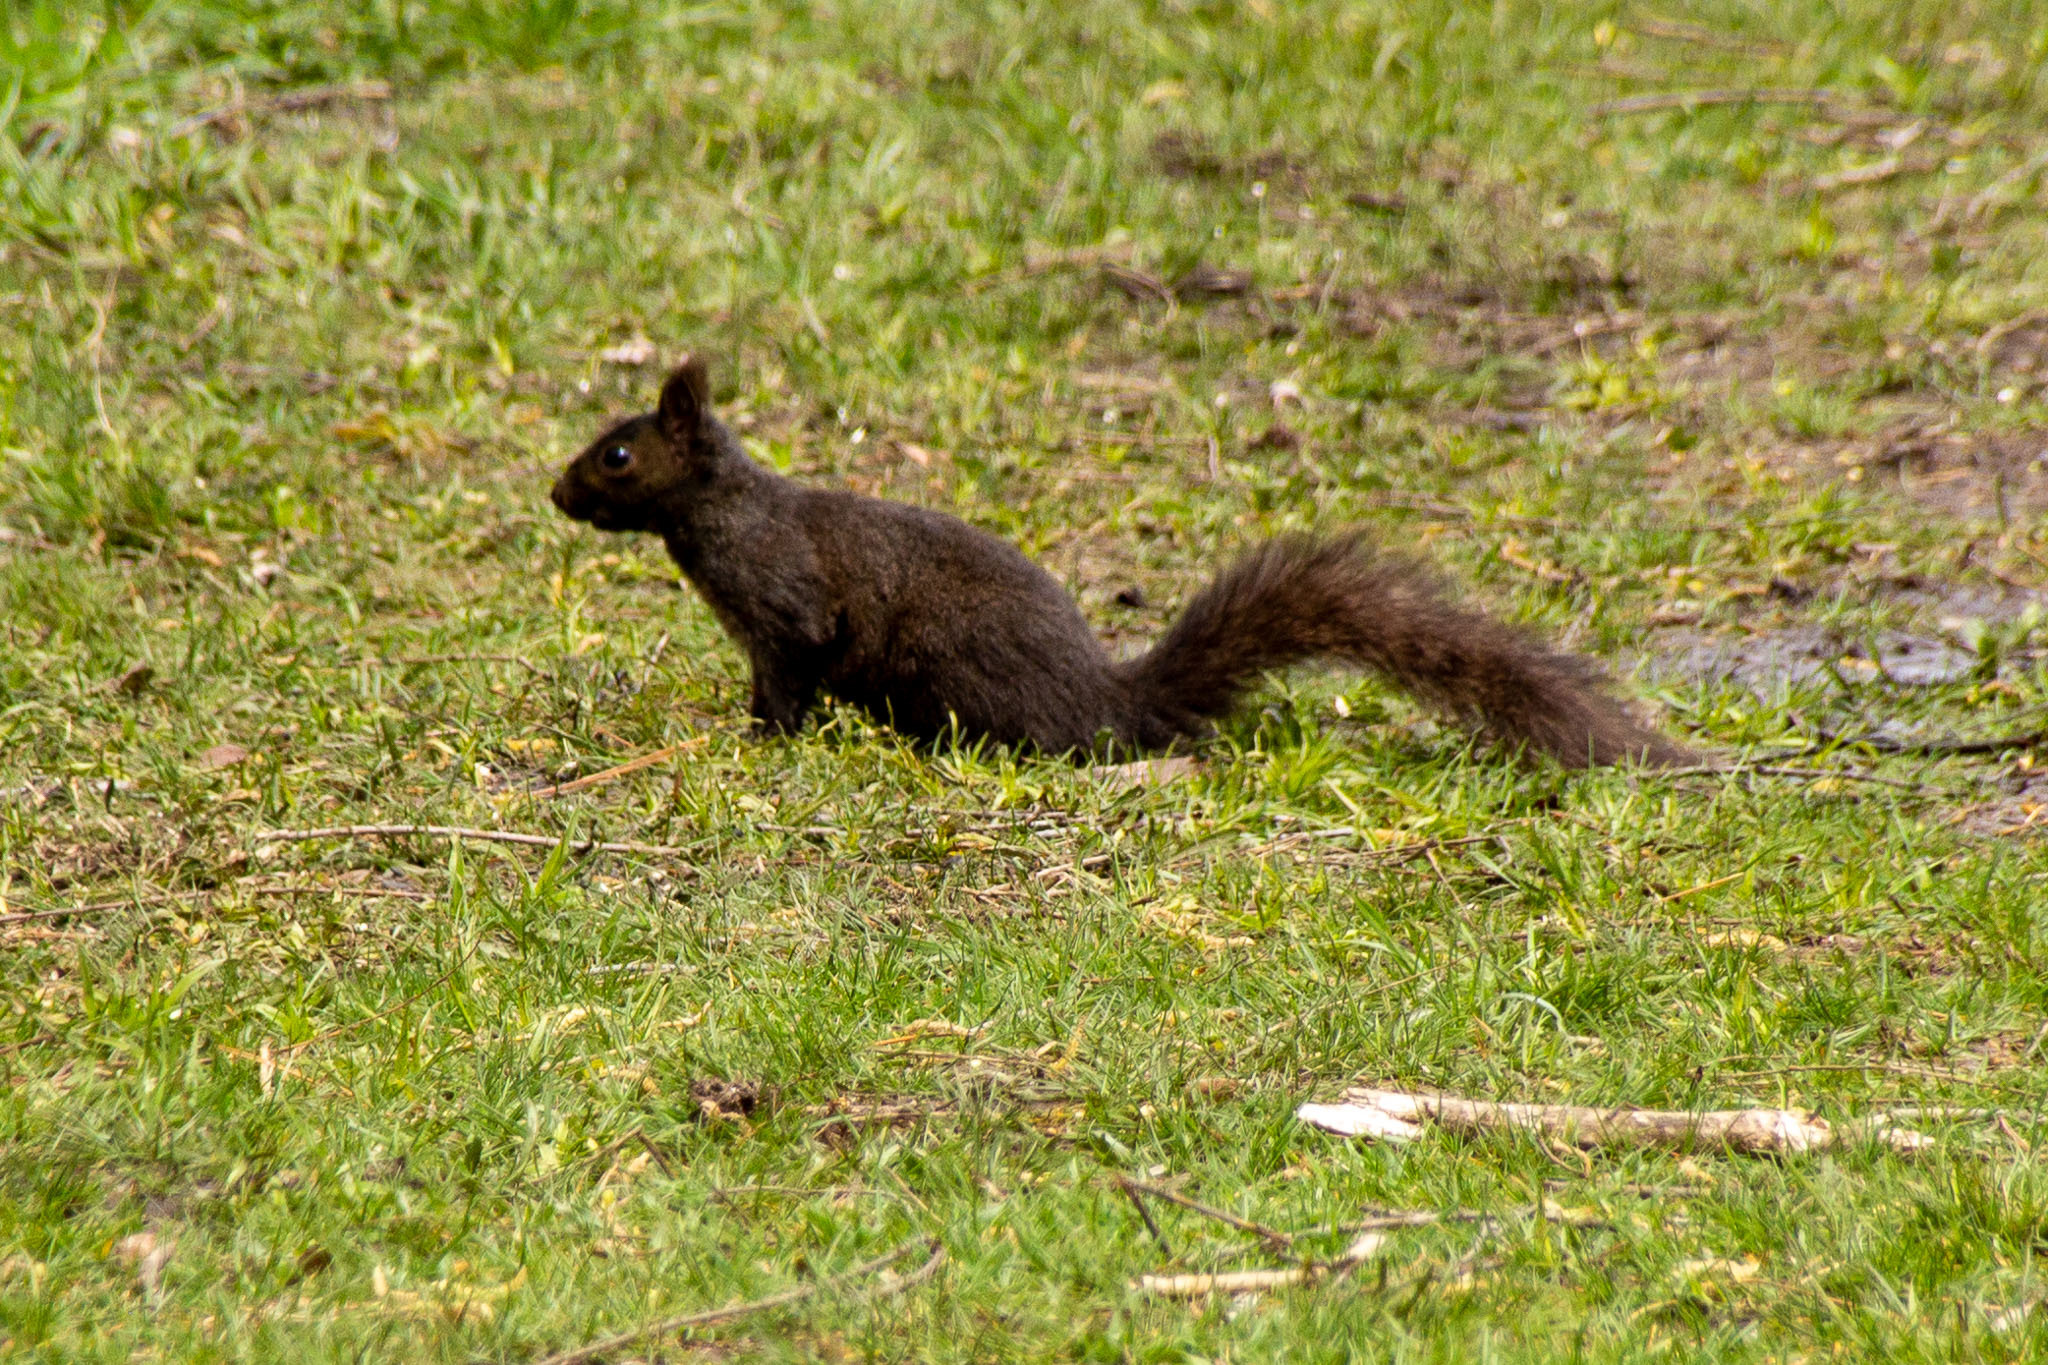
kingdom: Animalia
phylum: Chordata
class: Mammalia
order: Rodentia
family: Sciuridae
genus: Sciurus
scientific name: Sciurus carolinensis
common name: Eastern gray squirrel
